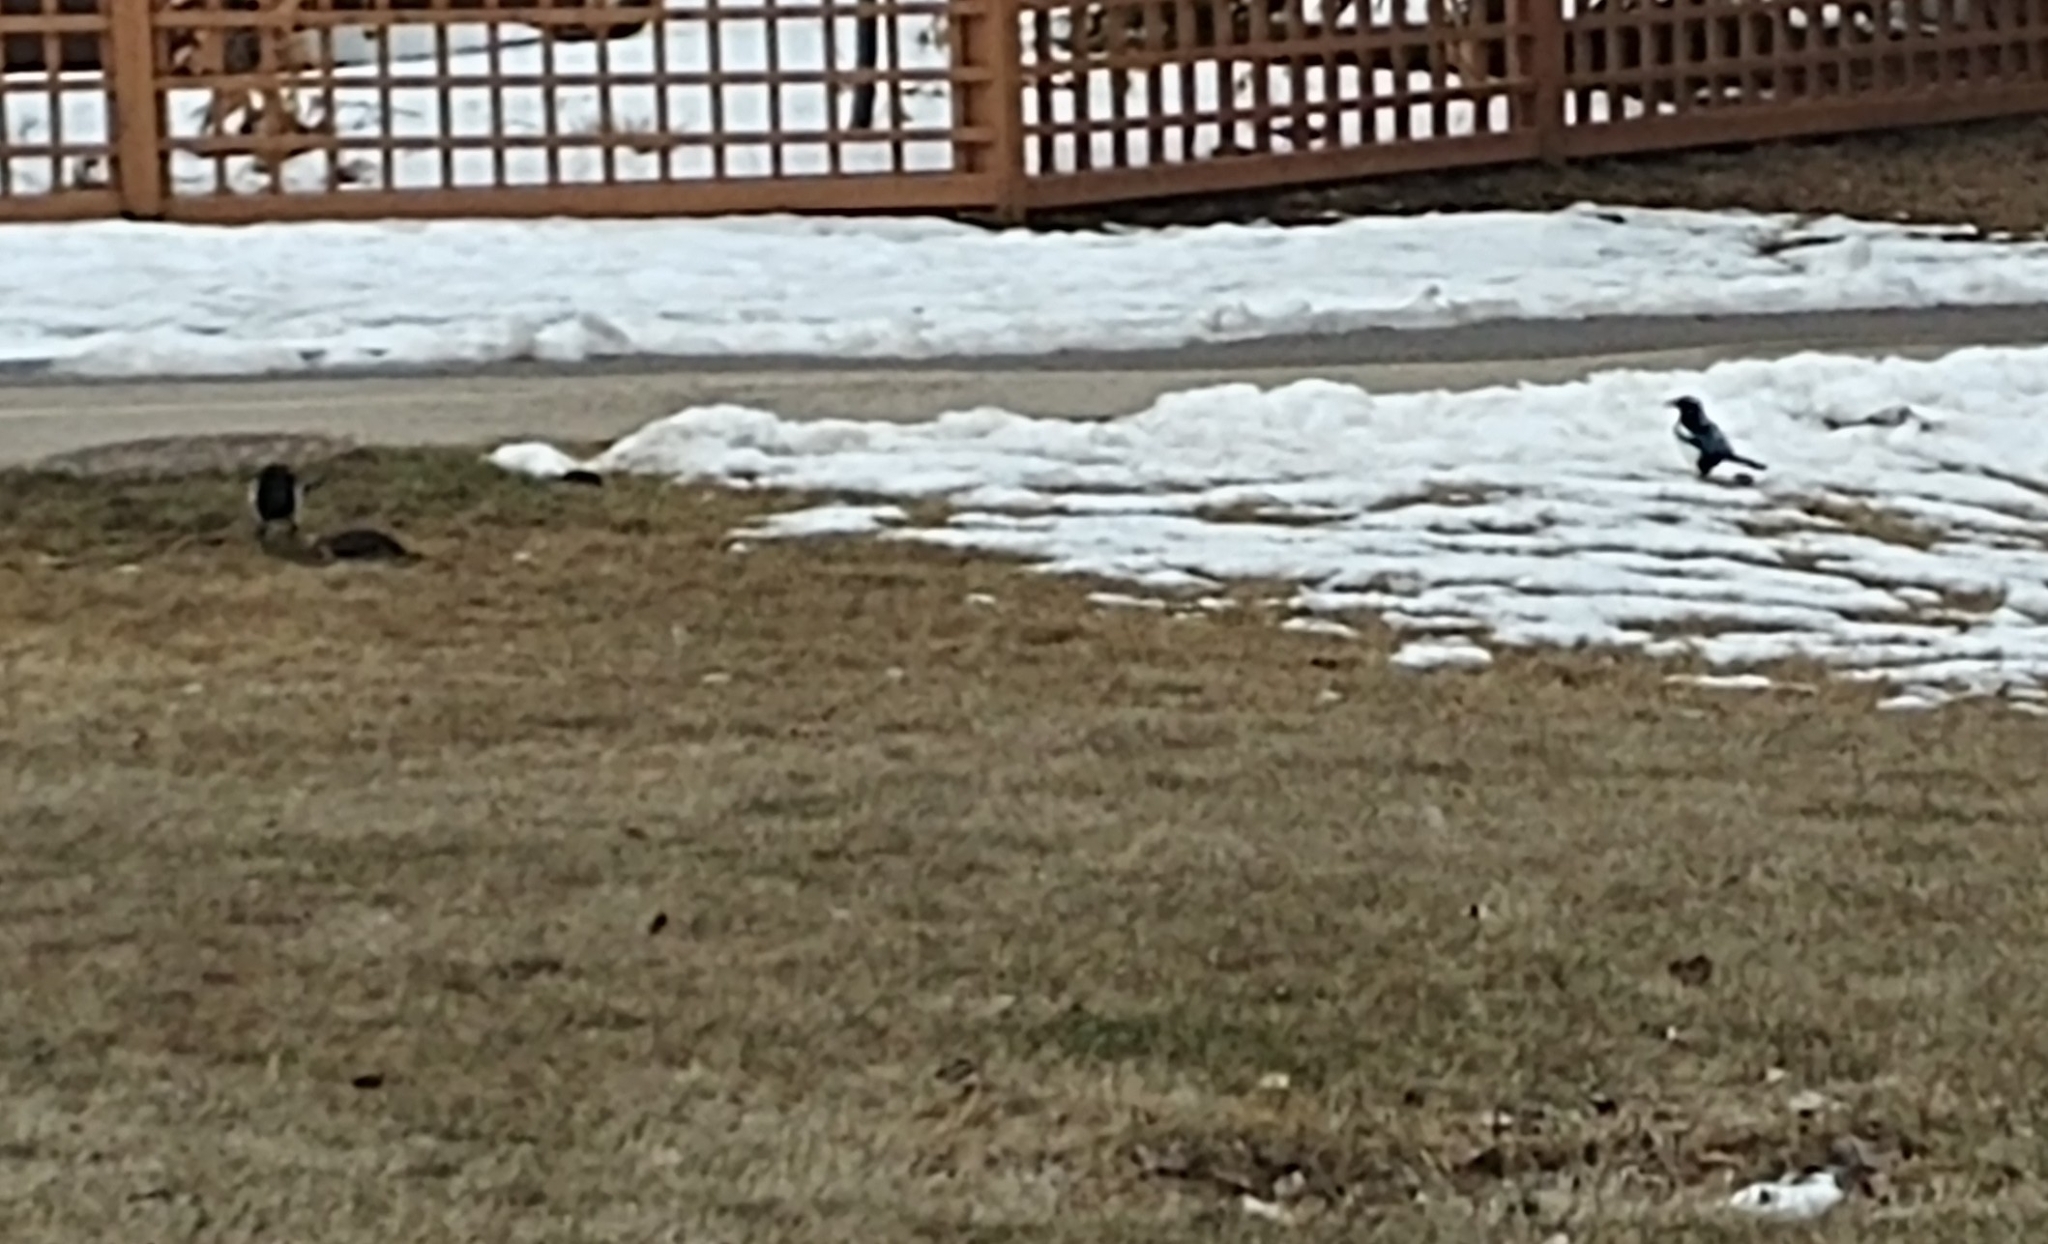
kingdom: Animalia
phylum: Chordata
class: Aves
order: Passeriformes
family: Corvidae
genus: Pica
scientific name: Pica hudsonia
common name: Black-billed magpie
